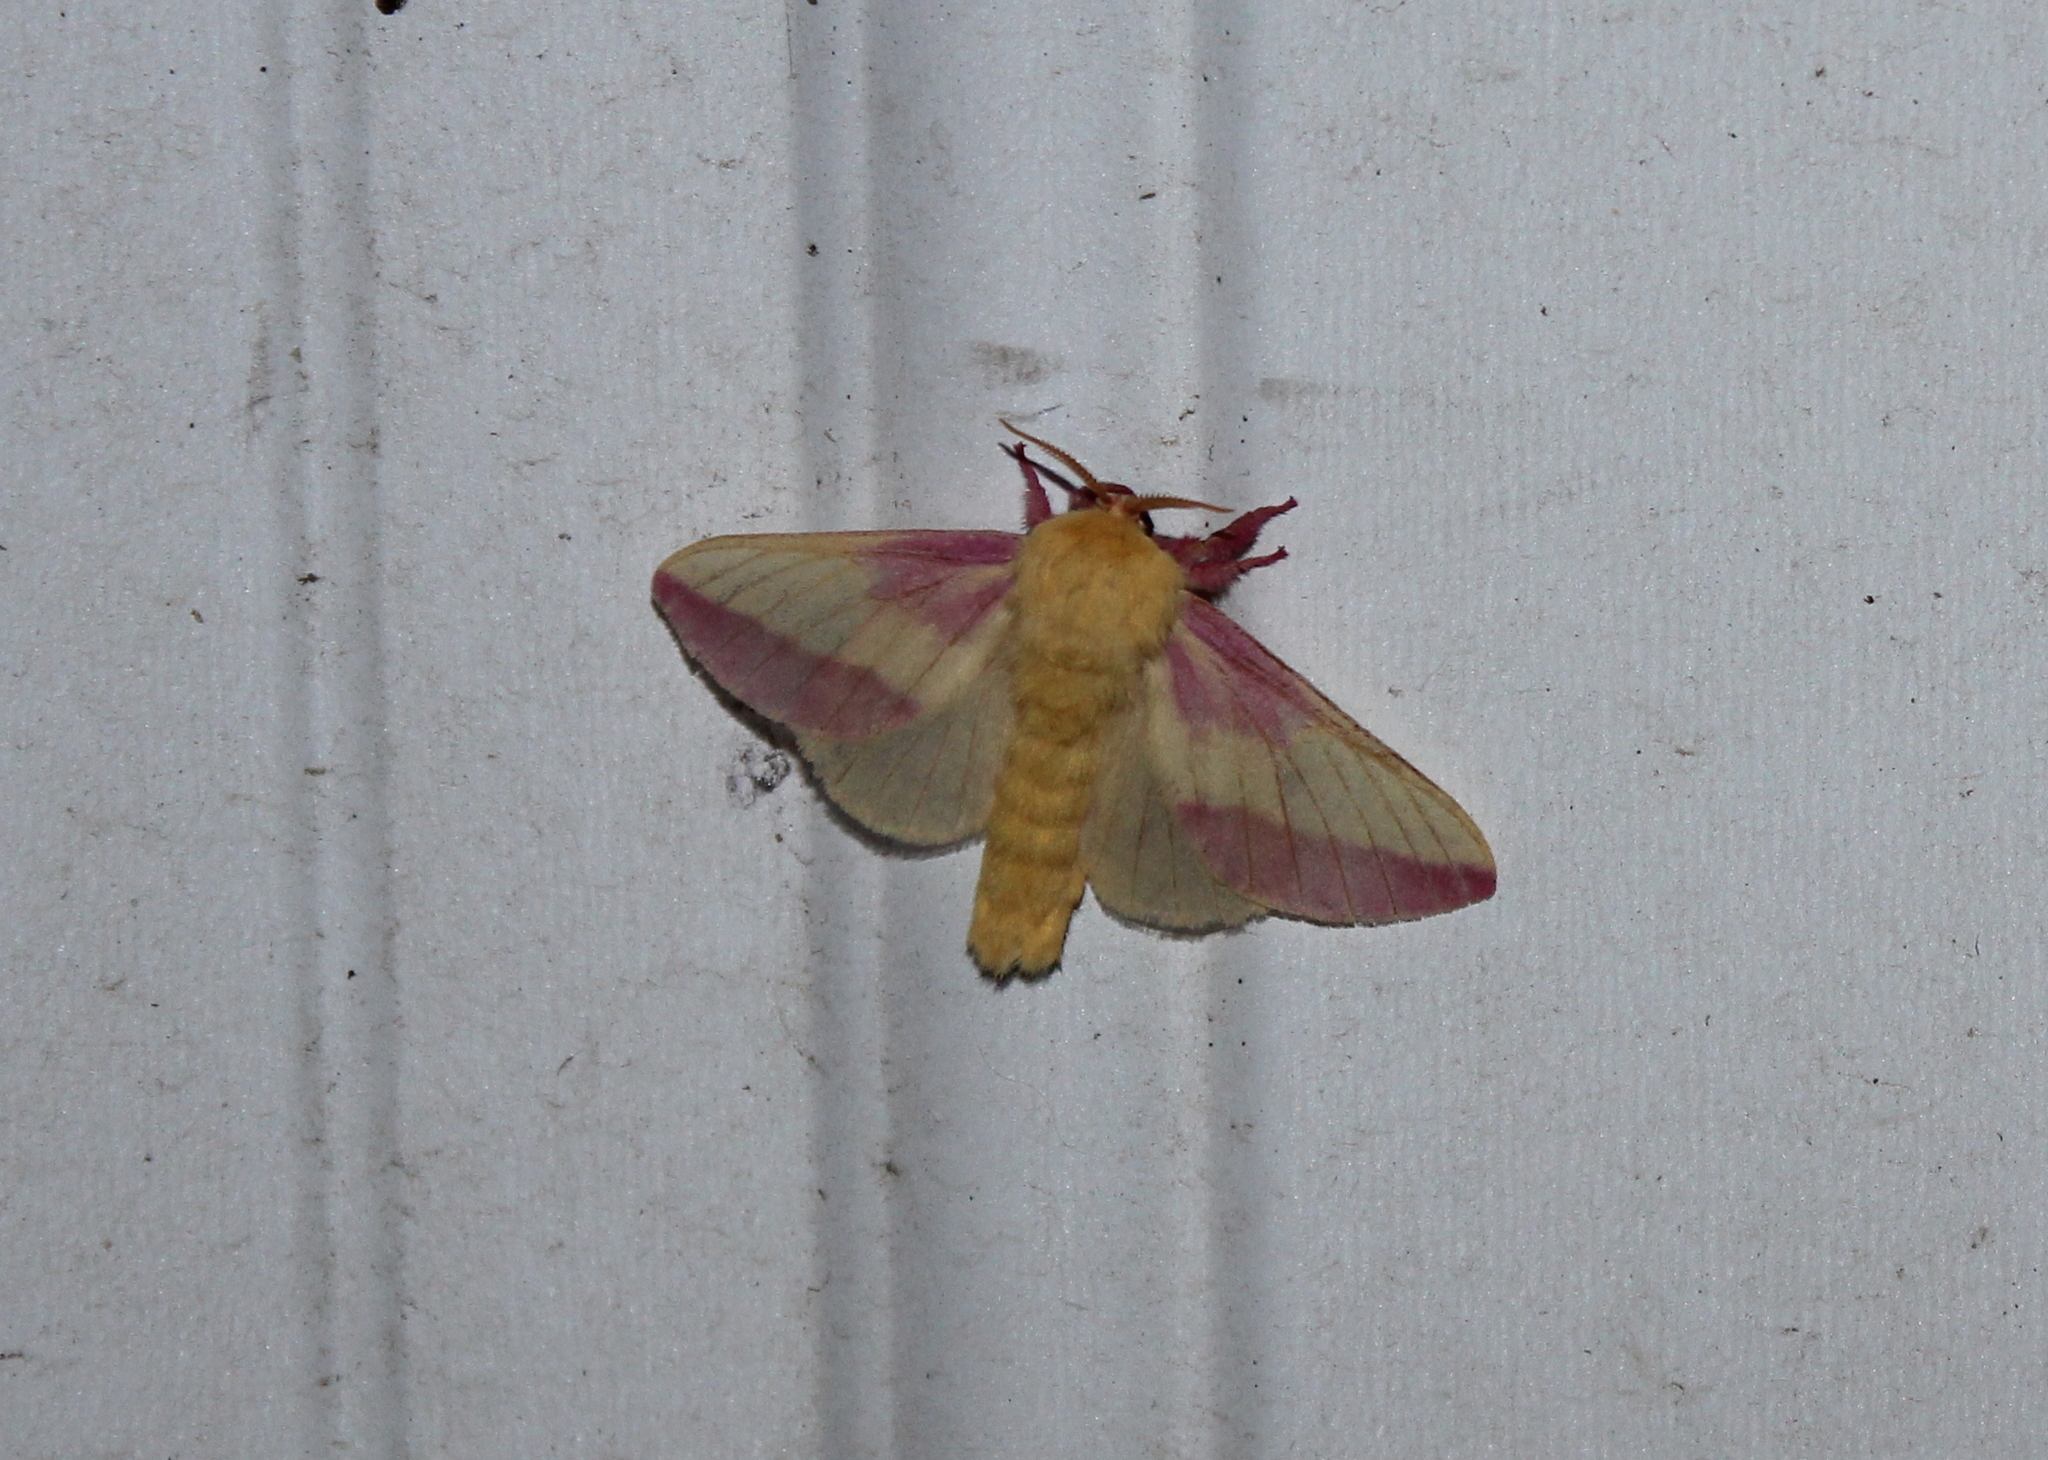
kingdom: Animalia
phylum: Arthropoda
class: Insecta
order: Lepidoptera
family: Saturniidae
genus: Dryocampa
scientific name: Dryocampa rubicunda
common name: Rosy maple moth
